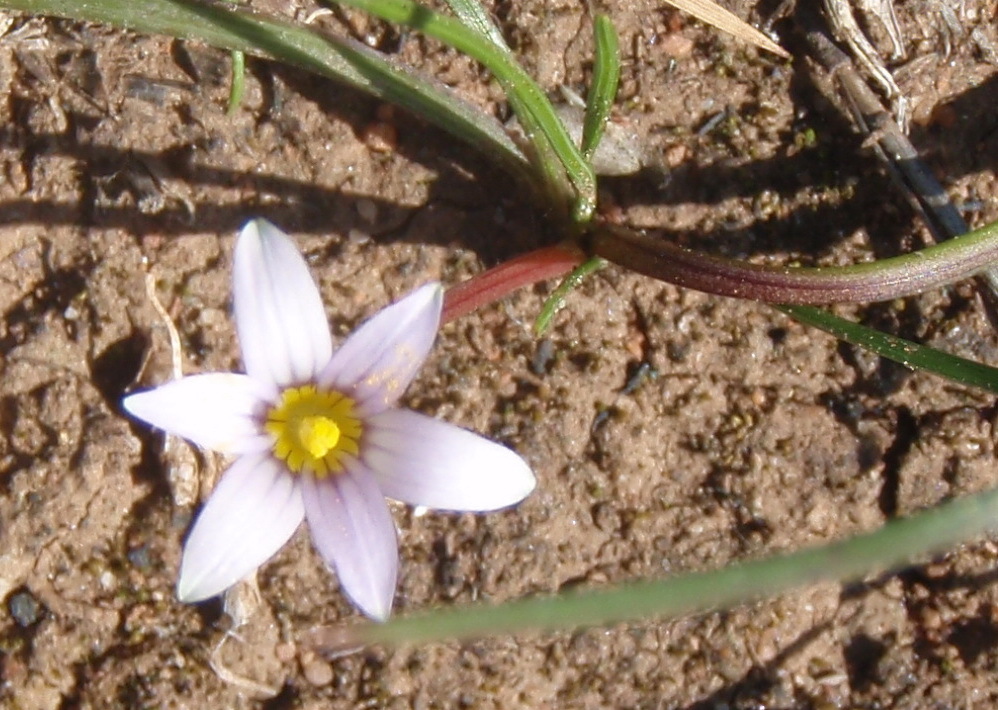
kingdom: Plantae
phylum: Tracheophyta
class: Liliopsida
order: Asparagales
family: Iridaceae
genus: Romulea
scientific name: Romulea pratensis
